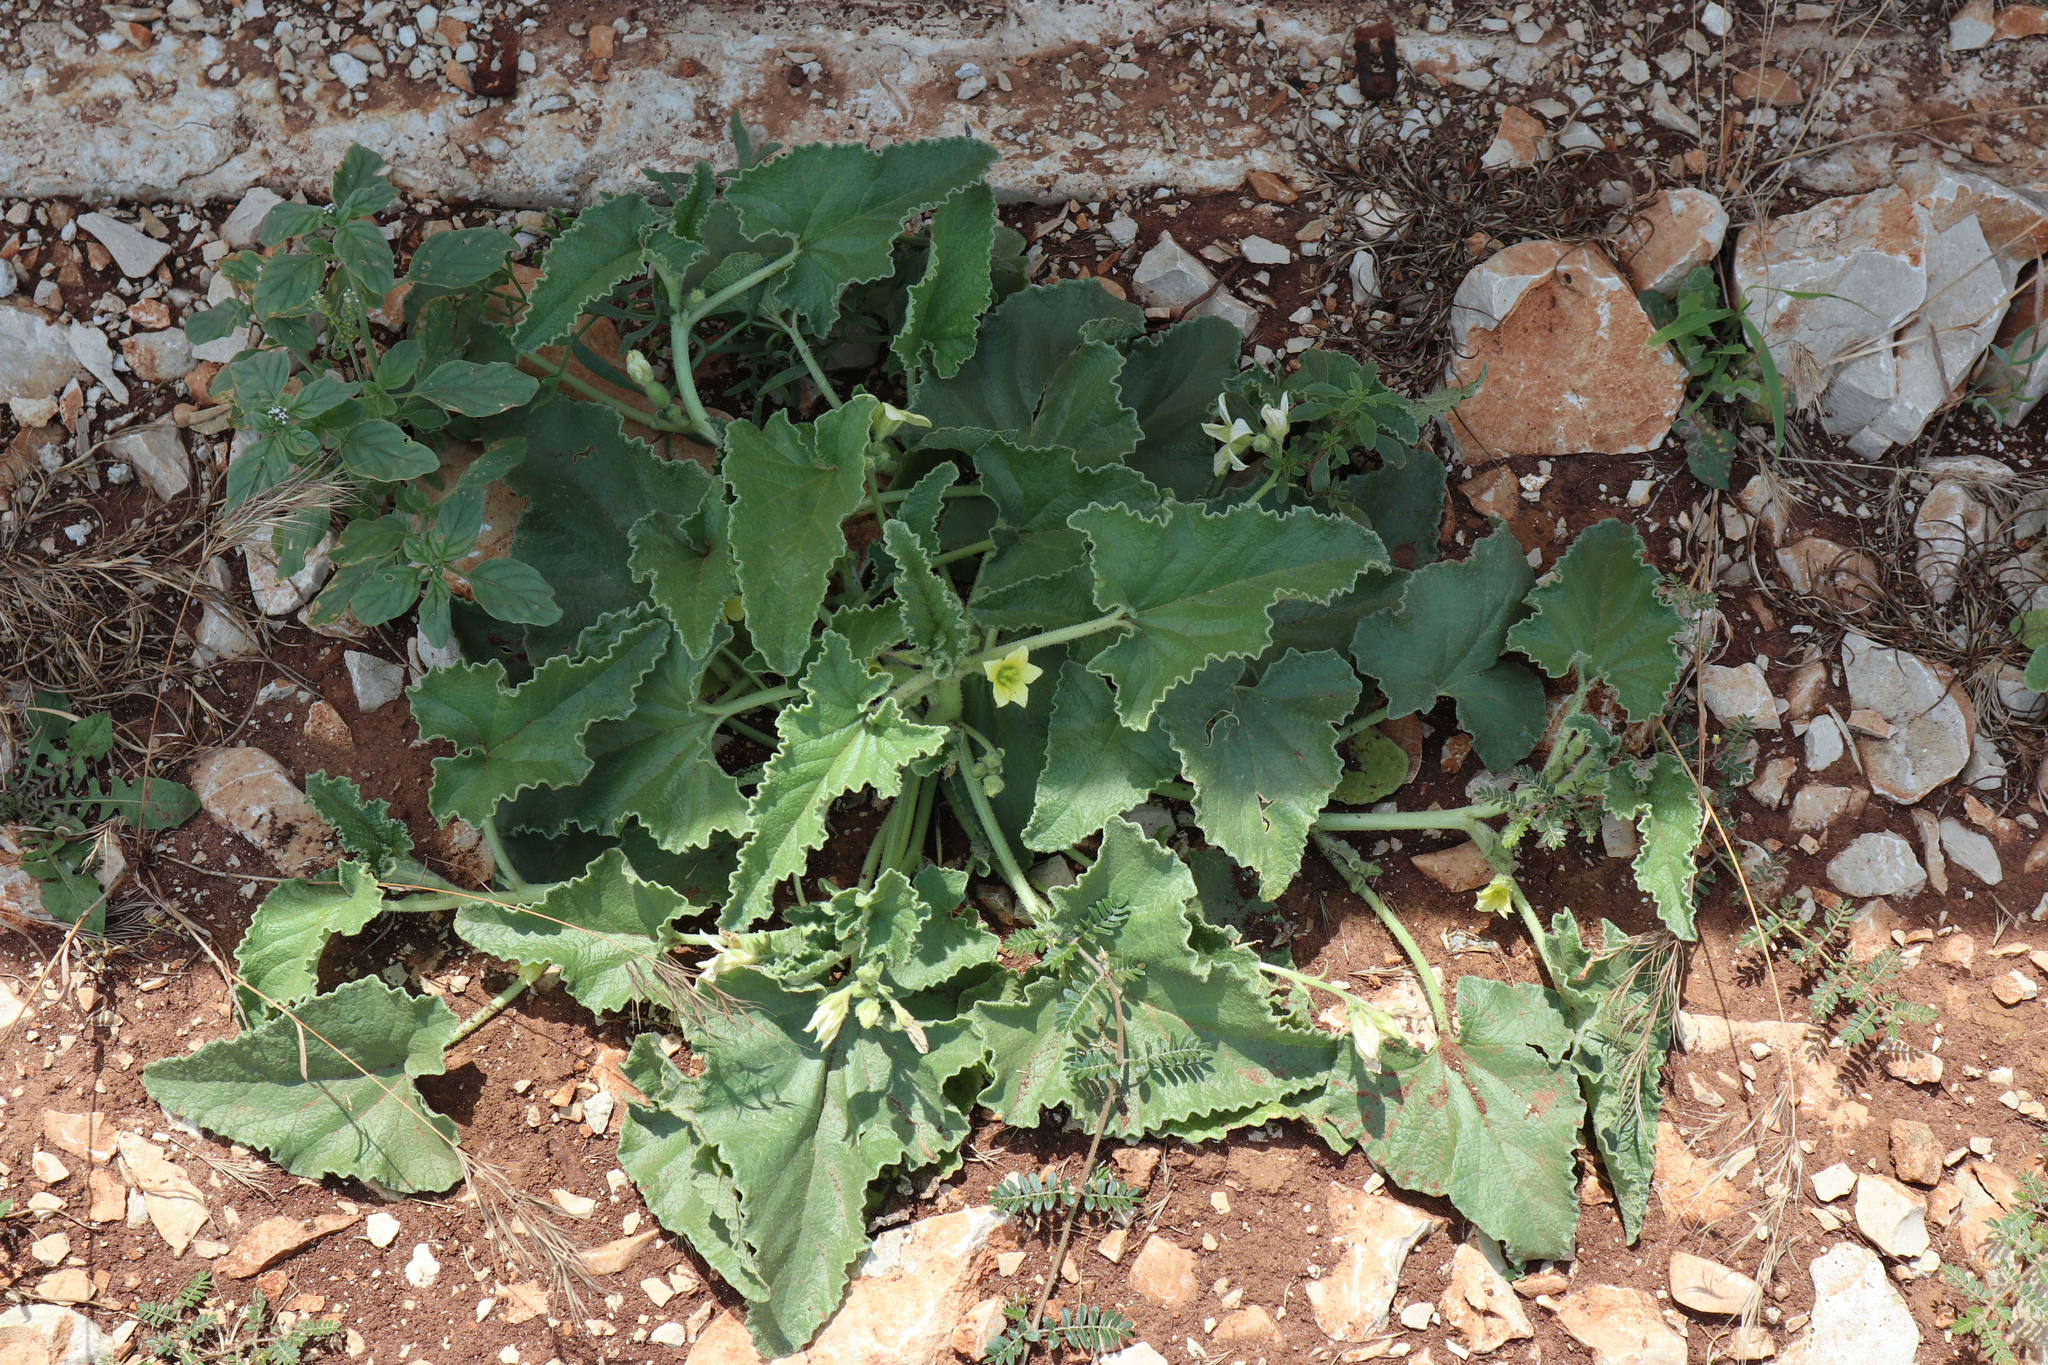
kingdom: Plantae
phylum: Tracheophyta
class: Magnoliopsida
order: Cucurbitales
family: Cucurbitaceae
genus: Ecballium
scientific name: Ecballium elaterium
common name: Squirting cucumber
